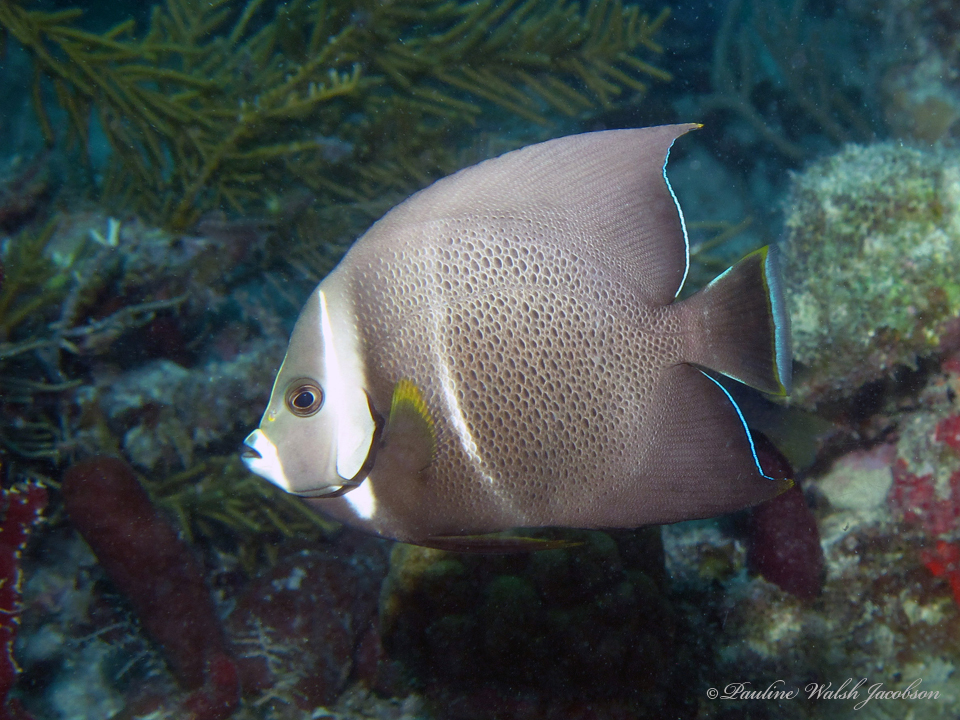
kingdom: Animalia
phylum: Chordata
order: Perciformes
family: Pomacanthidae
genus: Pomacanthus
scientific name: Pomacanthus arcuatus
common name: Gray angelfish
